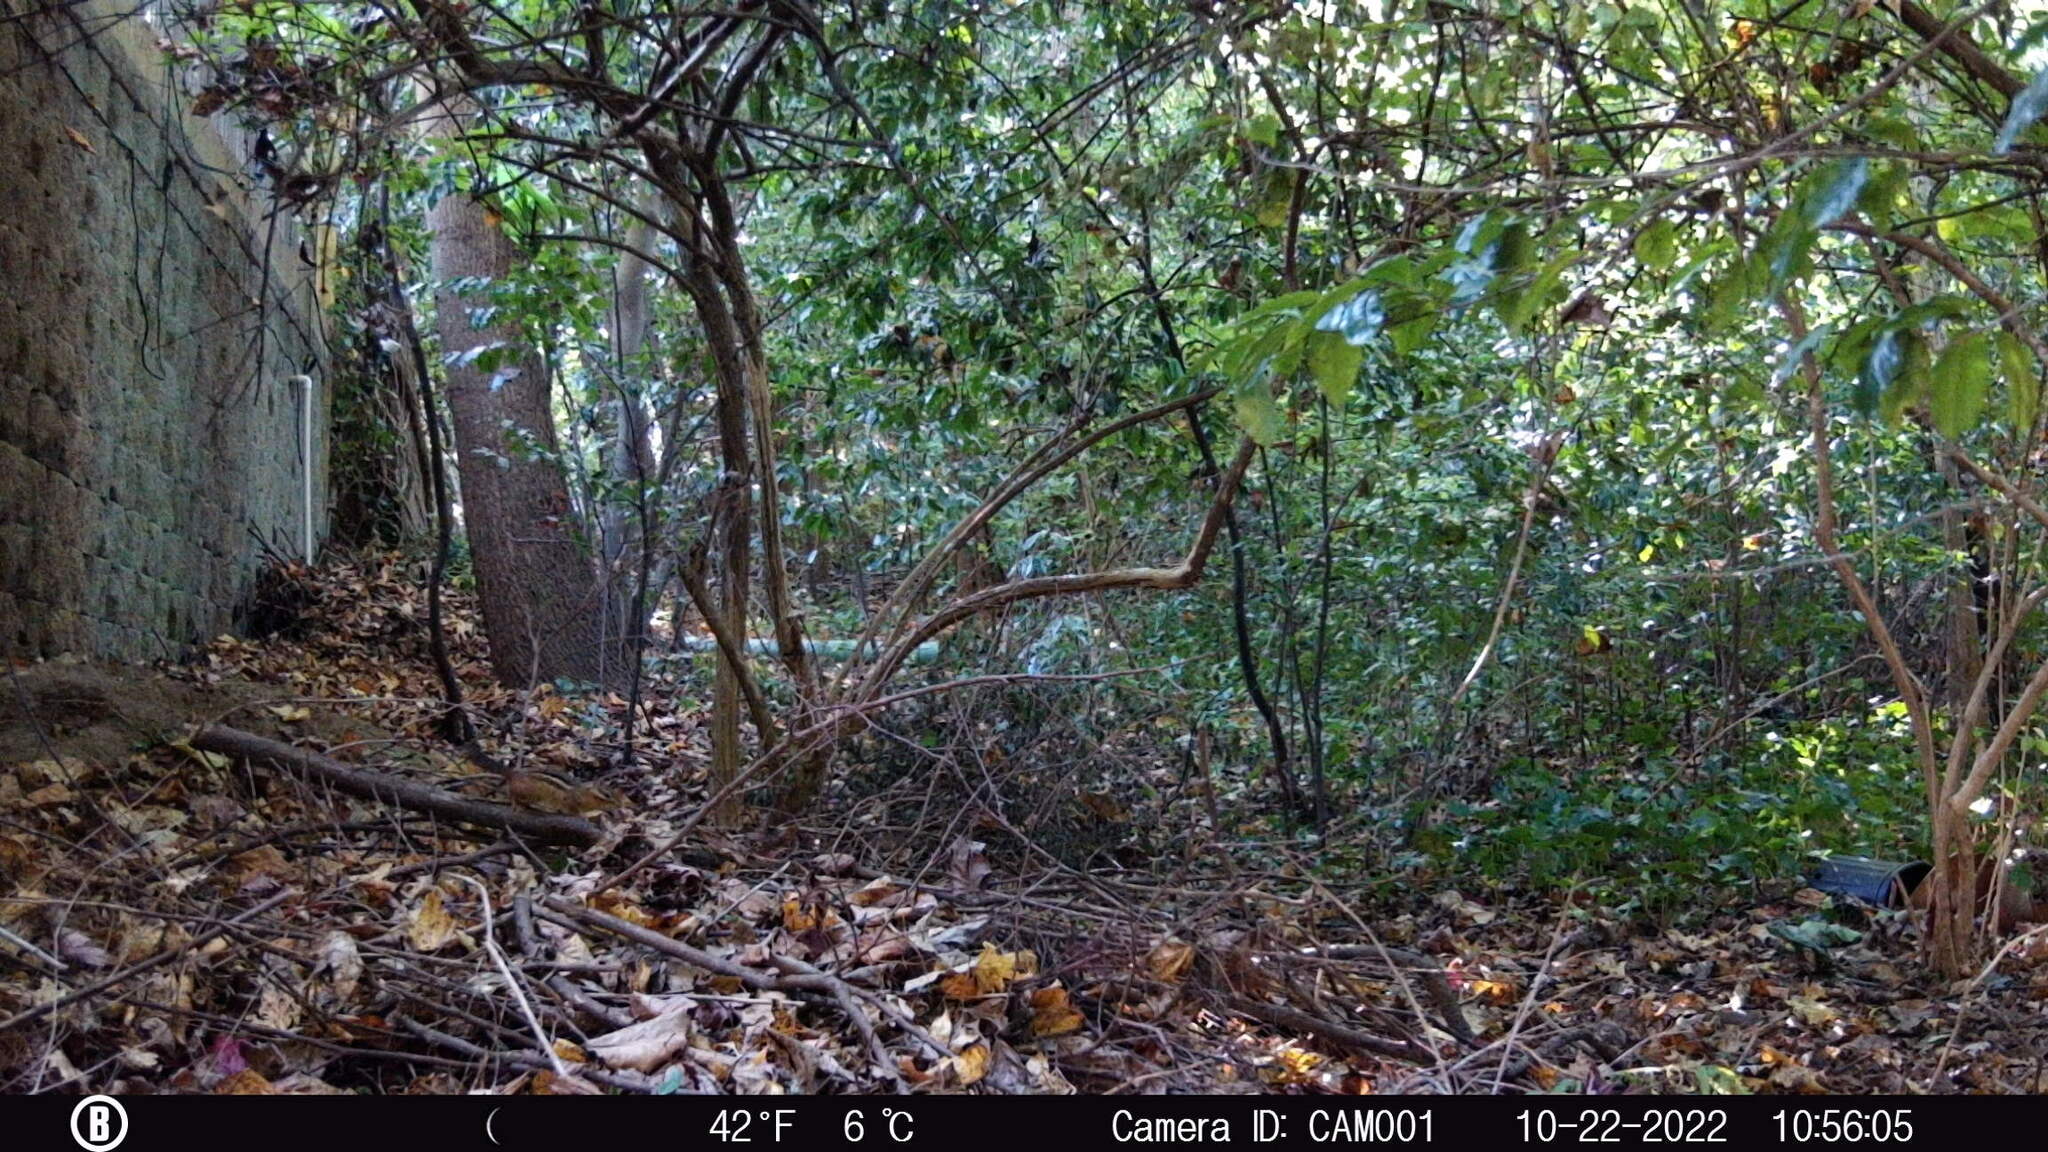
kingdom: Animalia
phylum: Chordata
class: Mammalia
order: Rodentia
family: Sciuridae
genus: Tamias
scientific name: Tamias striatus
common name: Eastern chipmunk
